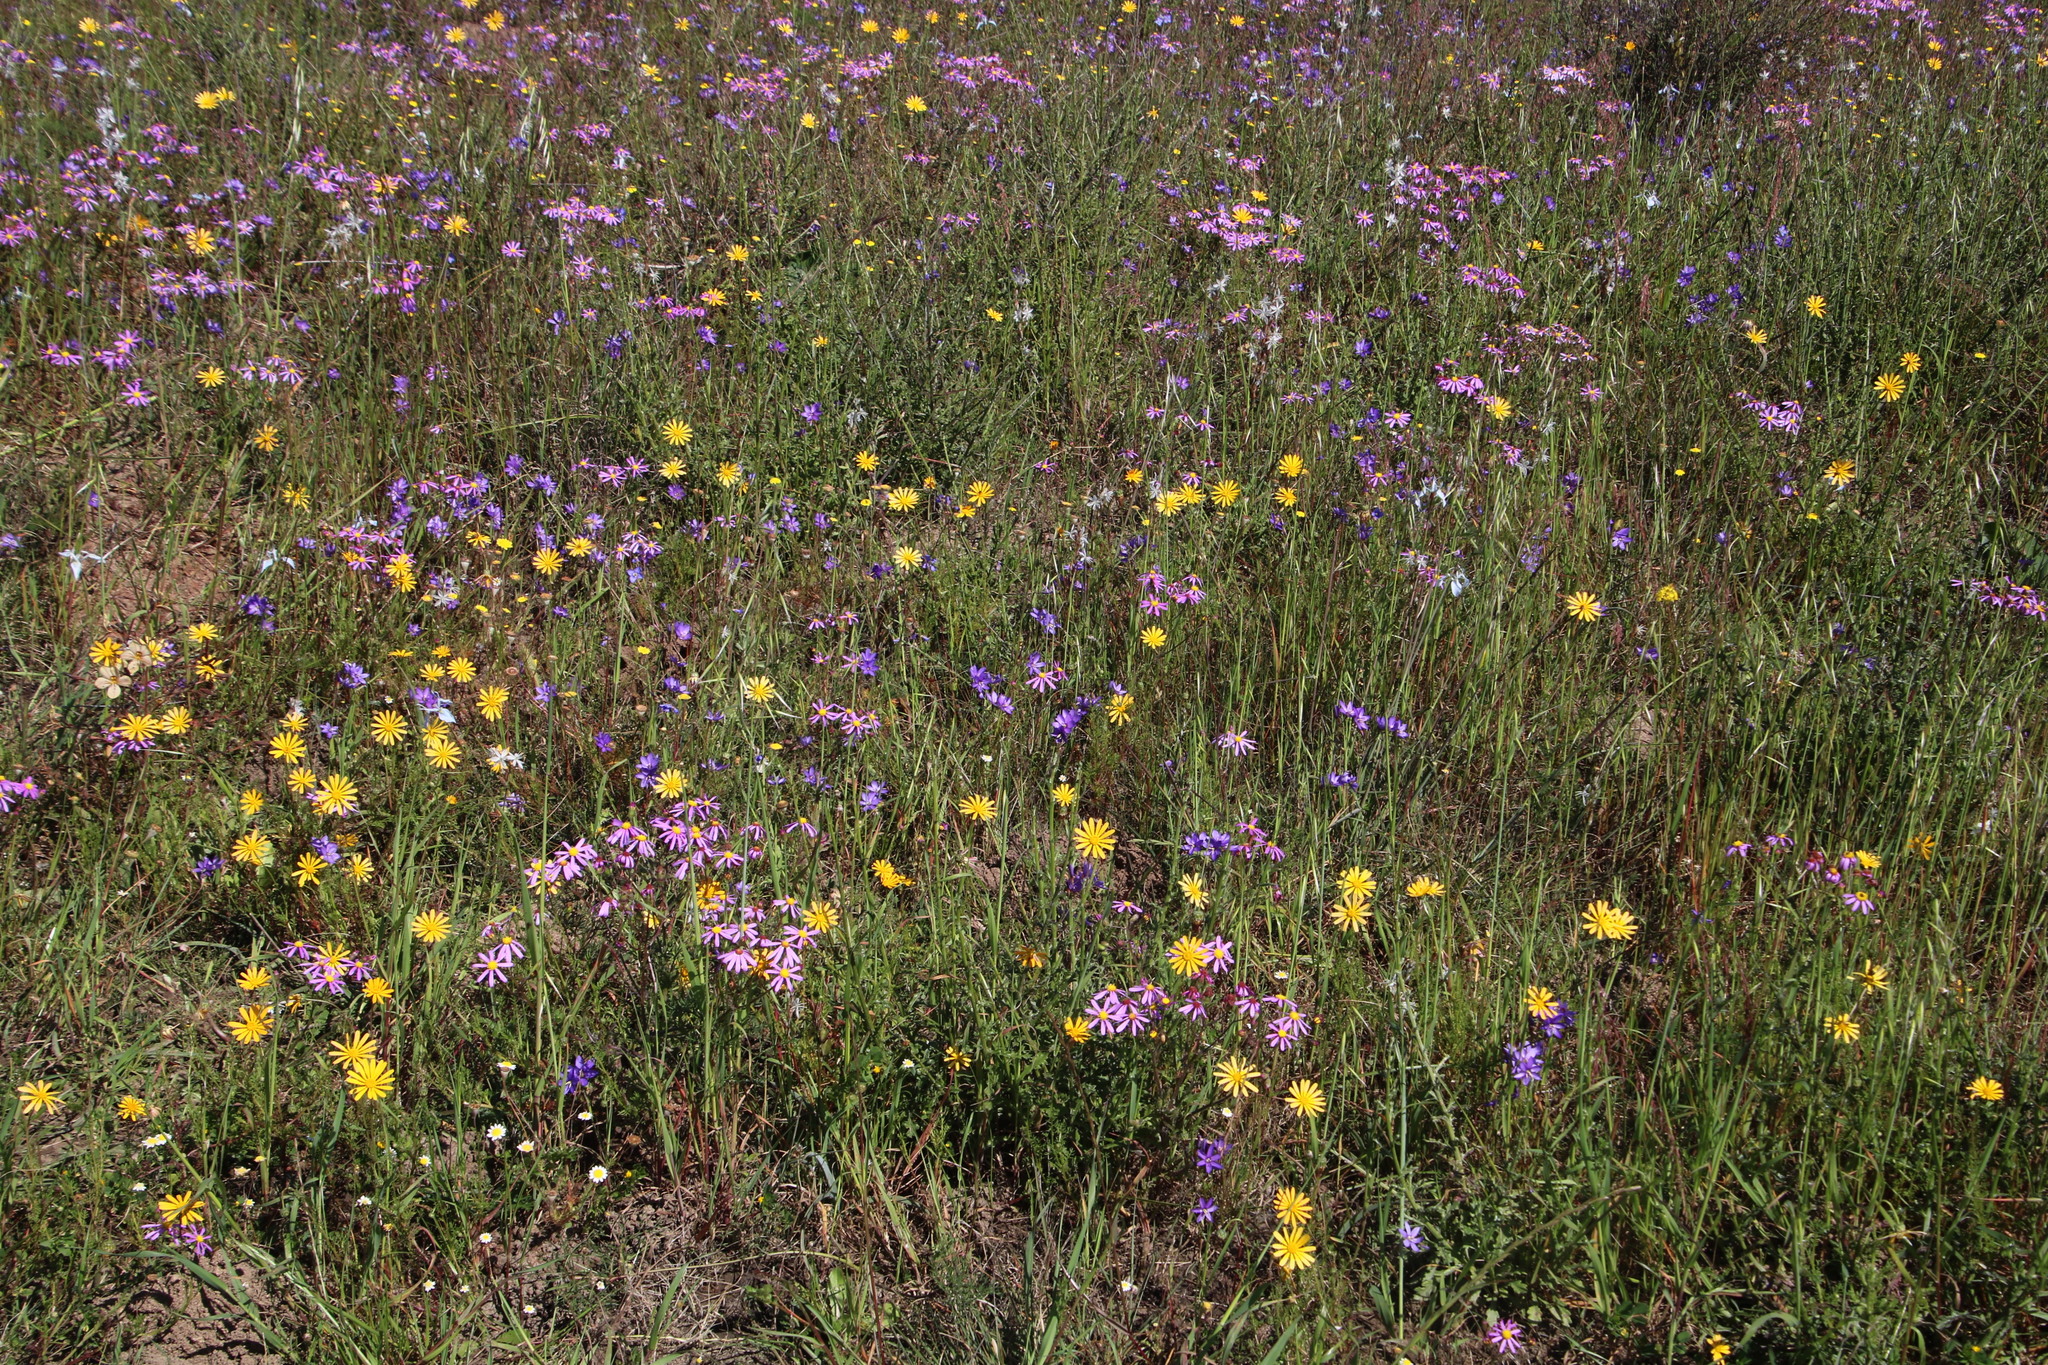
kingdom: Plantae
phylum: Tracheophyta
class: Liliopsida
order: Asparagales
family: Iridaceae
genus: Geissorhiza
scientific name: Geissorhiza aspera
